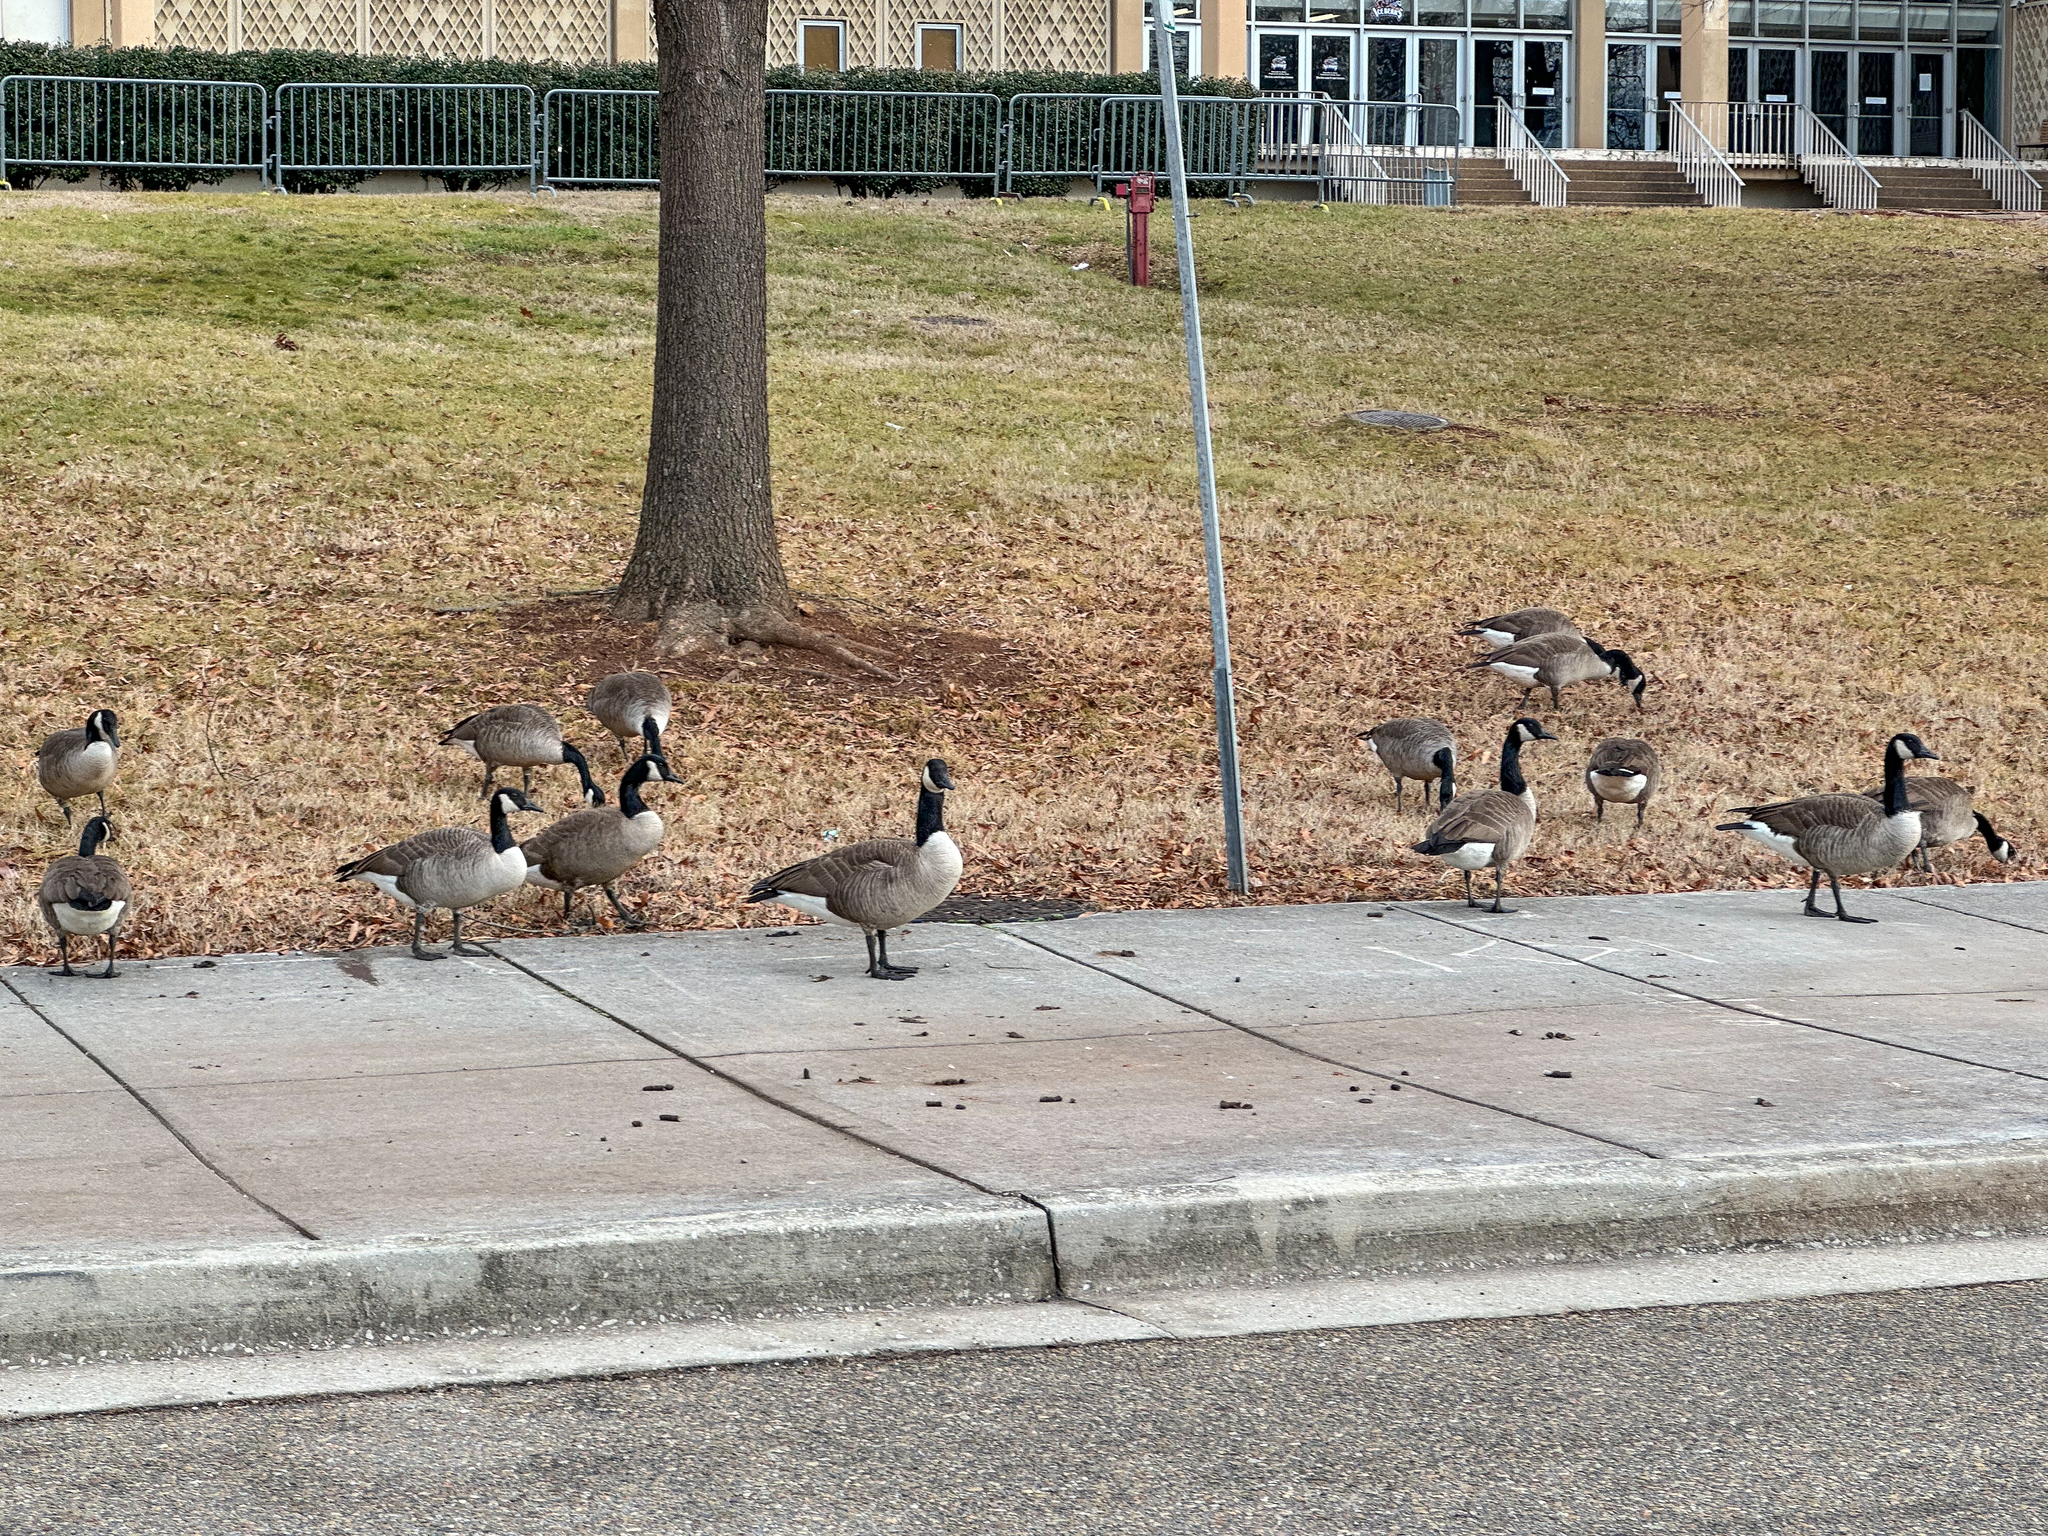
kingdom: Animalia
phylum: Chordata
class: Aves
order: Anseriformes
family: Anatidae
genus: Branta
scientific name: Branta canadensis
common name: Canada goose
